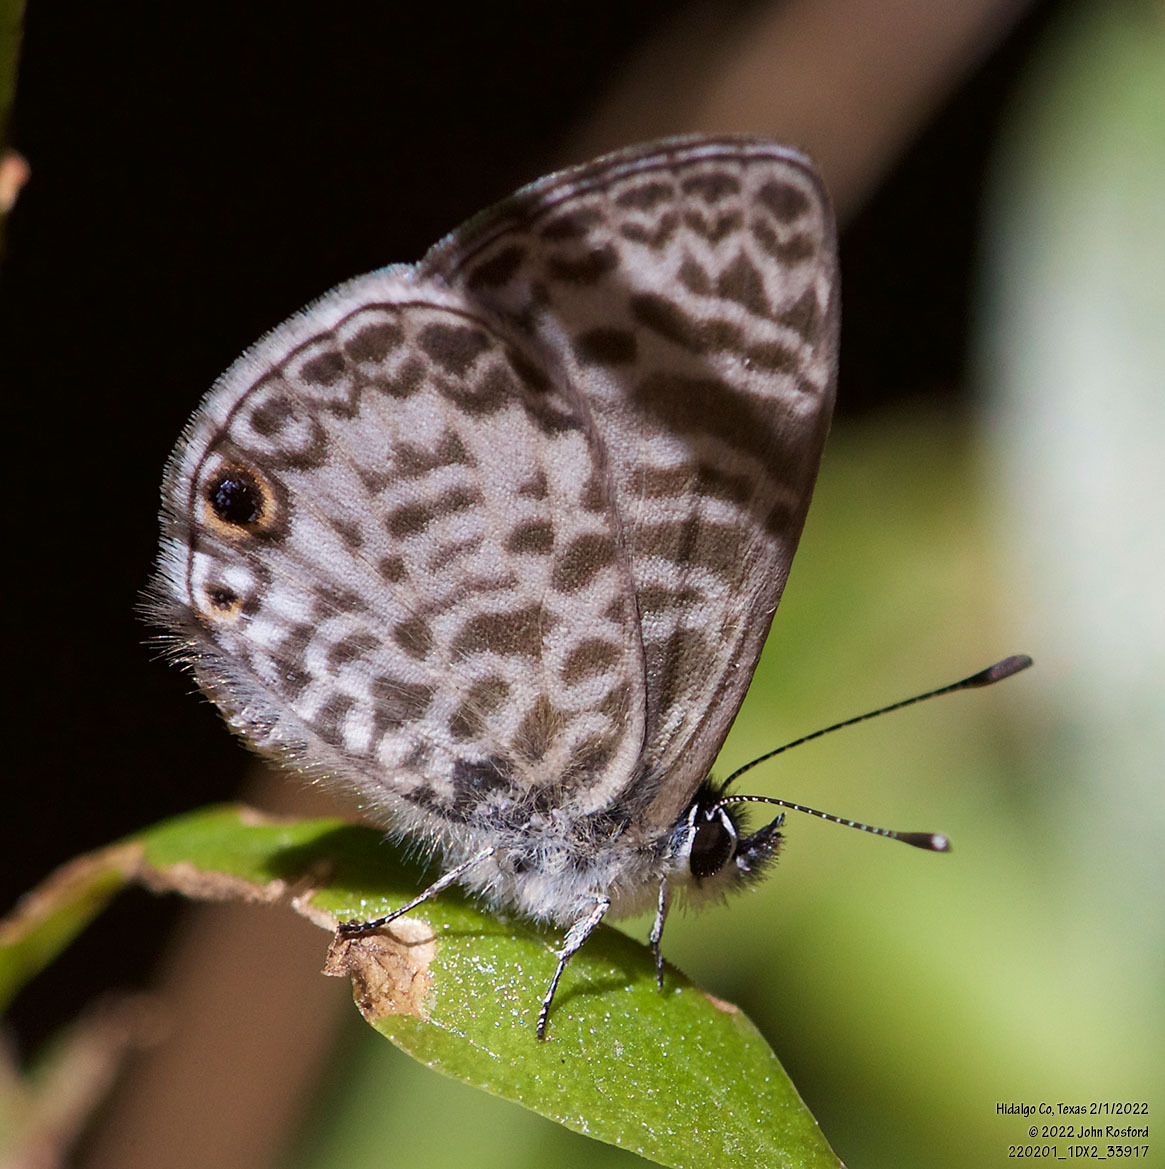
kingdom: Animalia
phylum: Arthropoda
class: Insecta
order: Lepidoptera
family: Lycaenidae
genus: Leptotes
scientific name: Leptotes cassius
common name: Cassius blue
